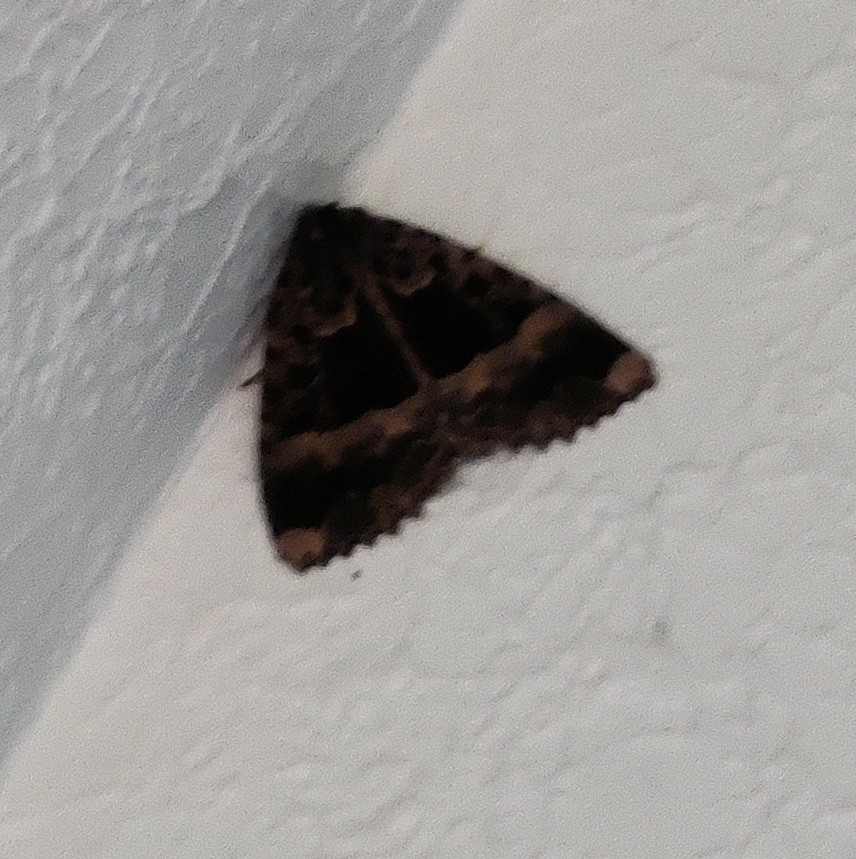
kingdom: Animalia
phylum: Arthropoda
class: Insecta
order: Lepidoptera
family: Noctuidae
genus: Mormo
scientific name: Mormo maura
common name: Old lady
